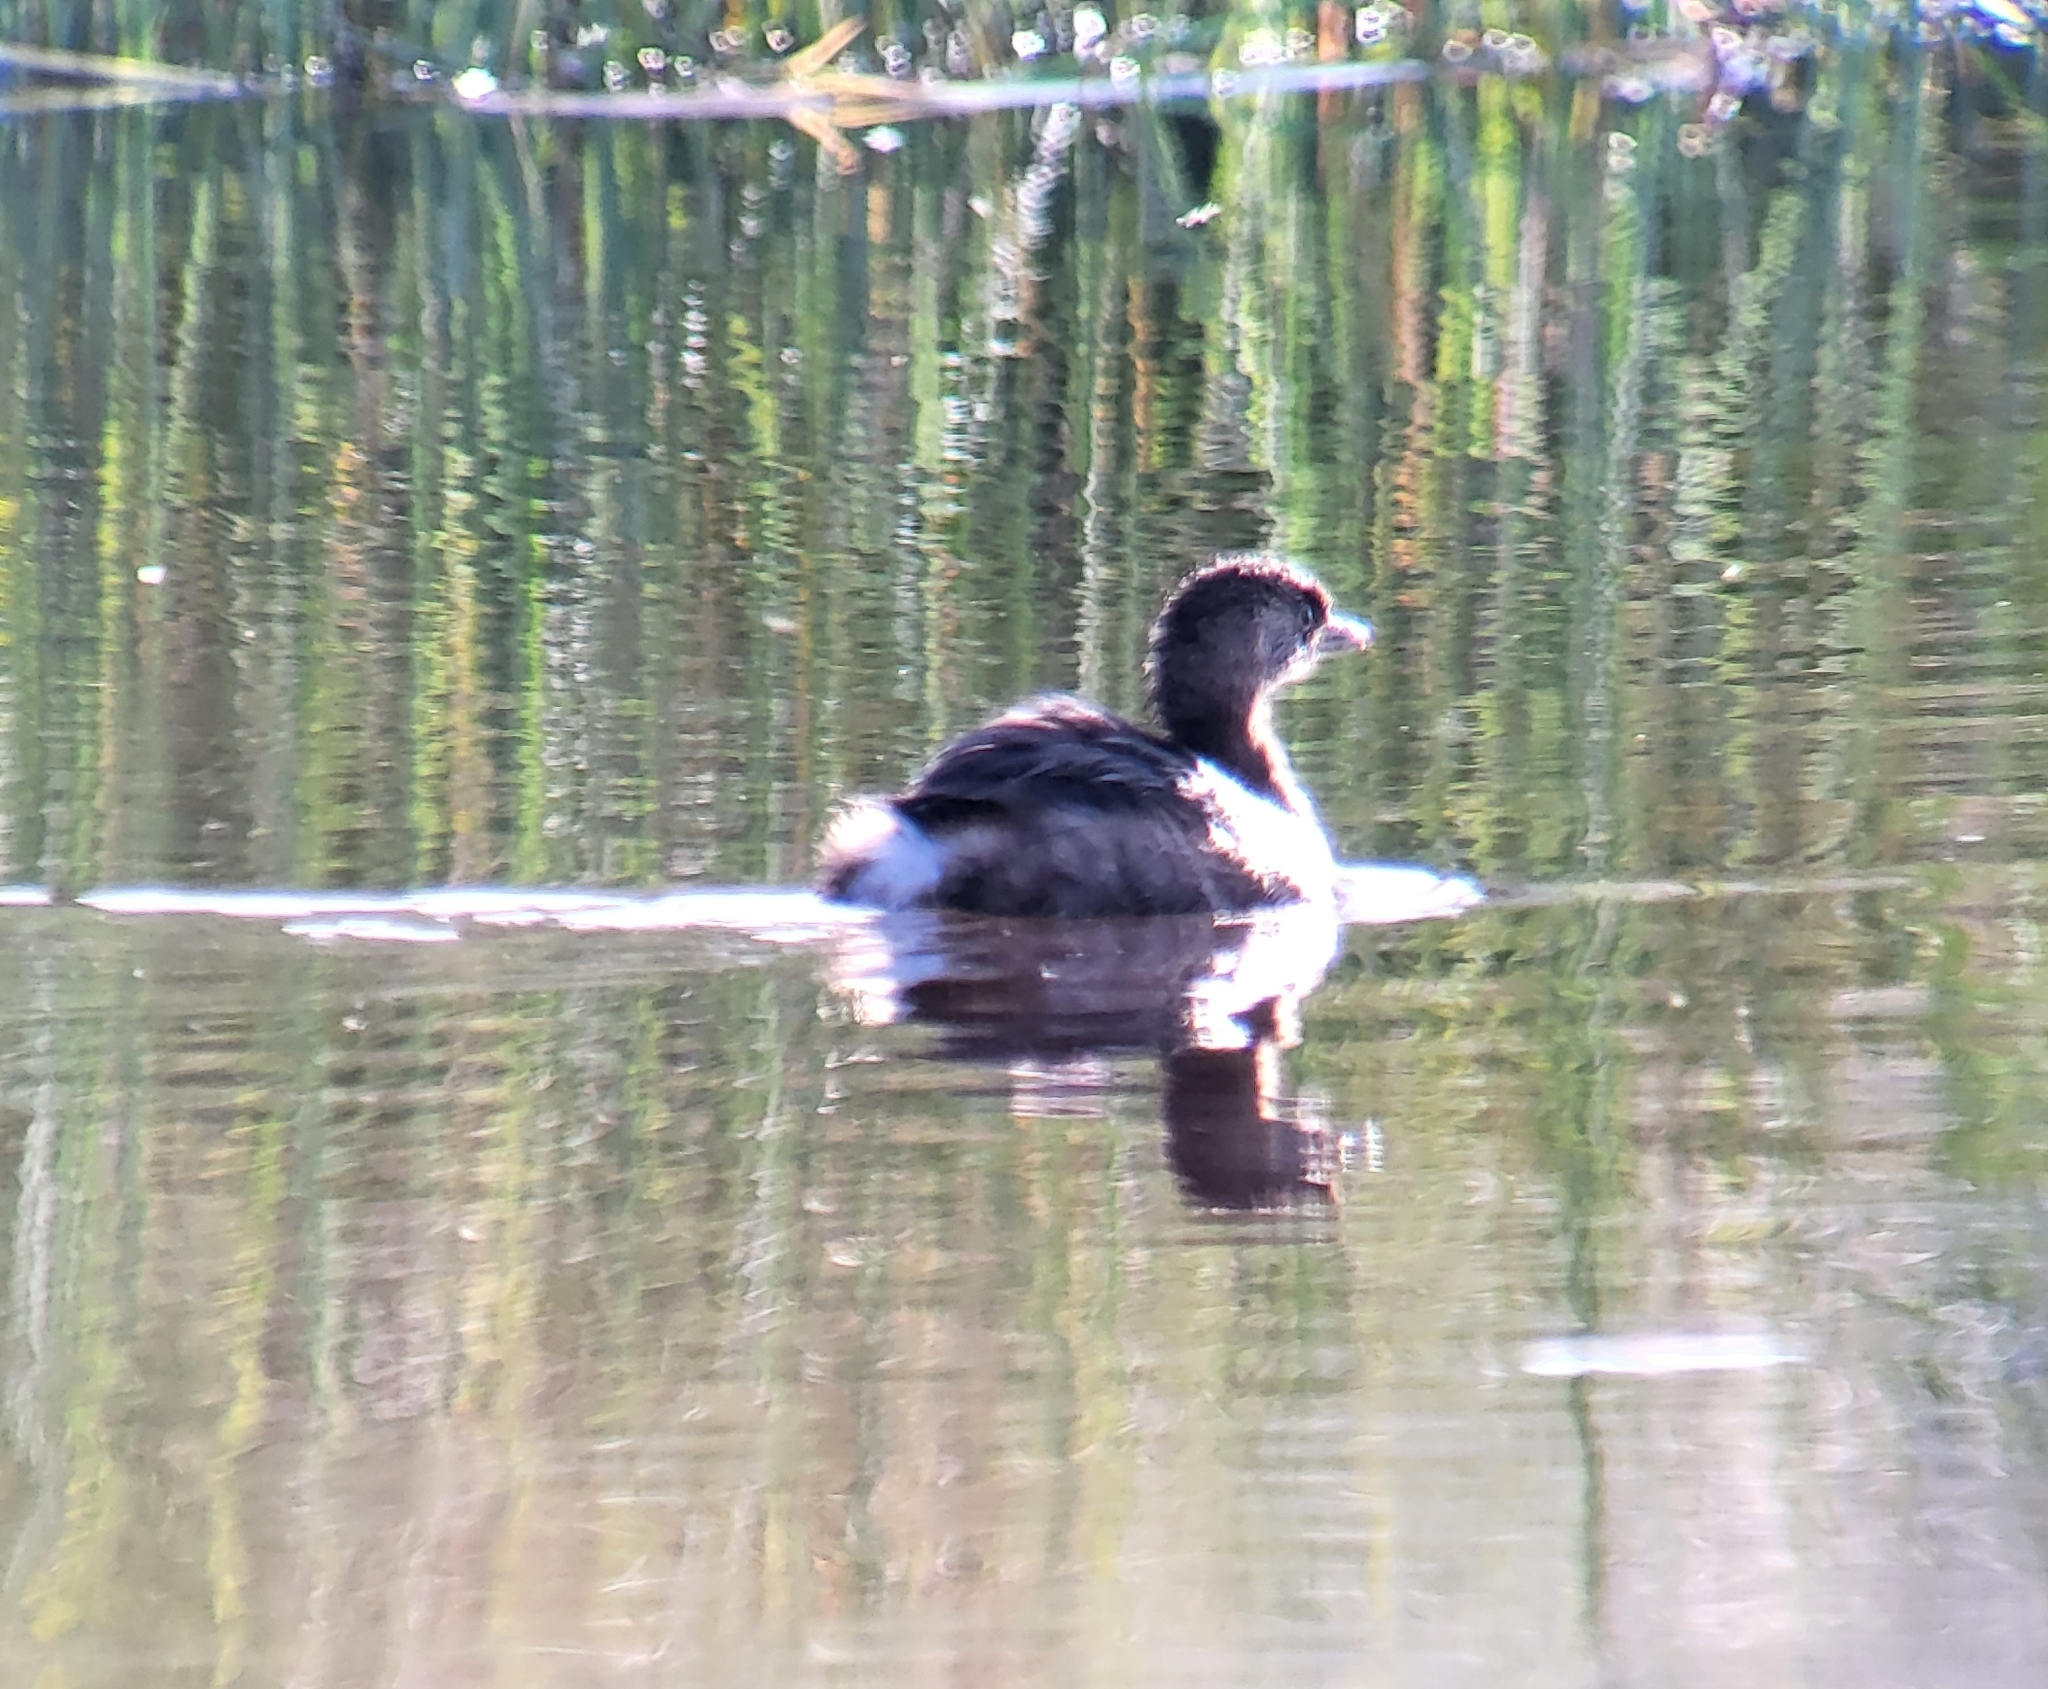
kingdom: Animalia
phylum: Chordata
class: Aves
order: Podicipediformes
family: Podicipedidae
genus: Podilymbus
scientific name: Podilymbus podiceps
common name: Pied-billed grebe
